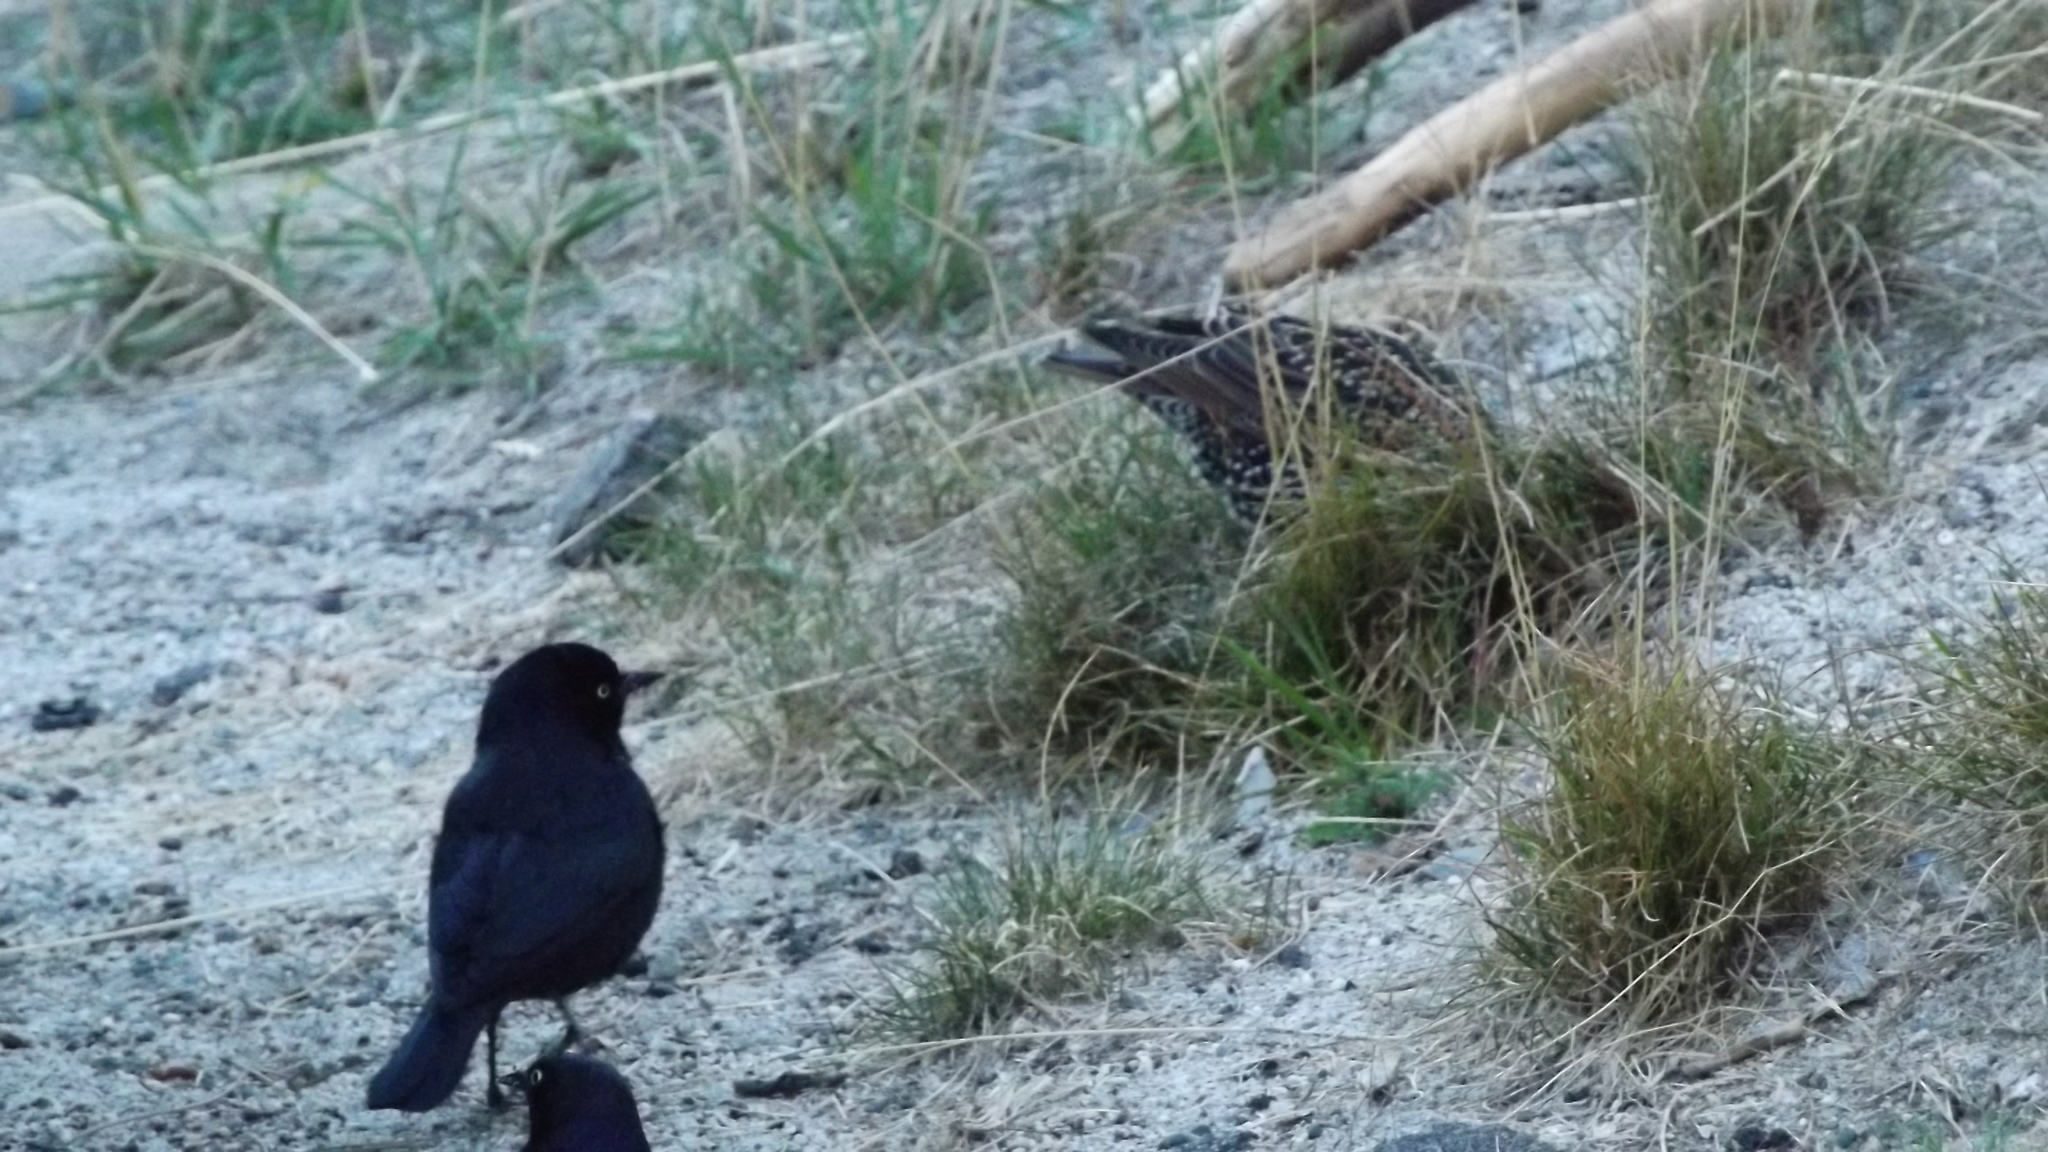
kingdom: Animalia
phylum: Chordata
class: Aves
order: Passeriformes
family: Icteridae
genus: Euphagus
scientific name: Euphagus cyanocephalus
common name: Brewer's blackbird
